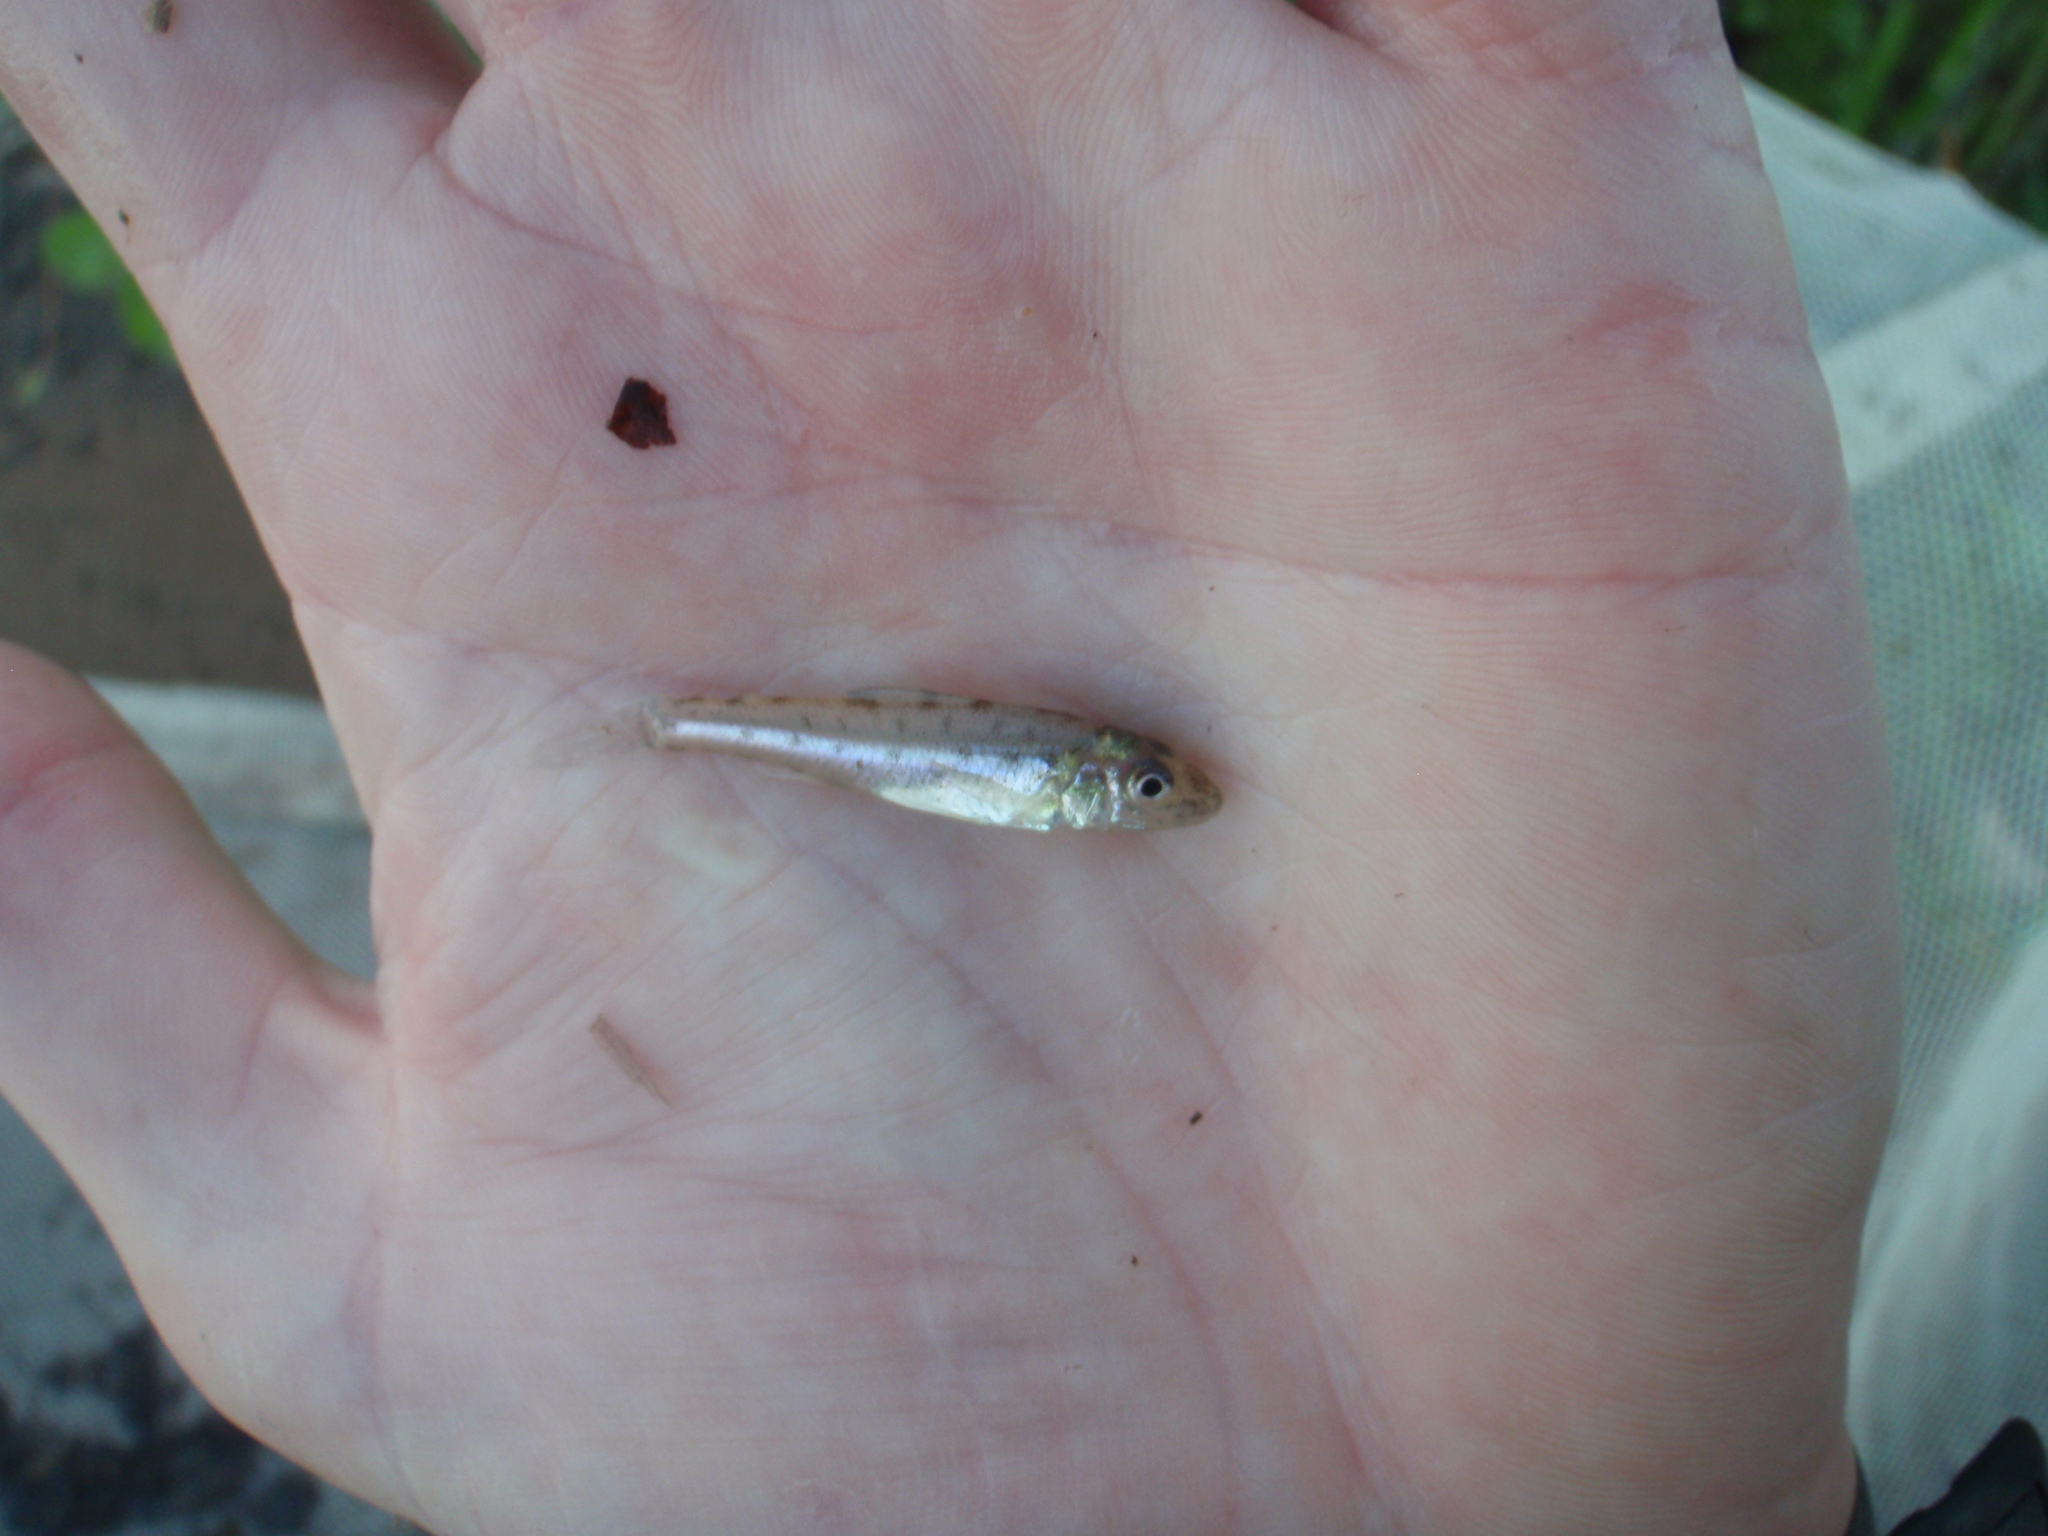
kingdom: Animalia
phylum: Chordata
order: Percopsiformes
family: Percopsidae
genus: Percopsis
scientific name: Percopsis omiscomaycus
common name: Trout-perch
